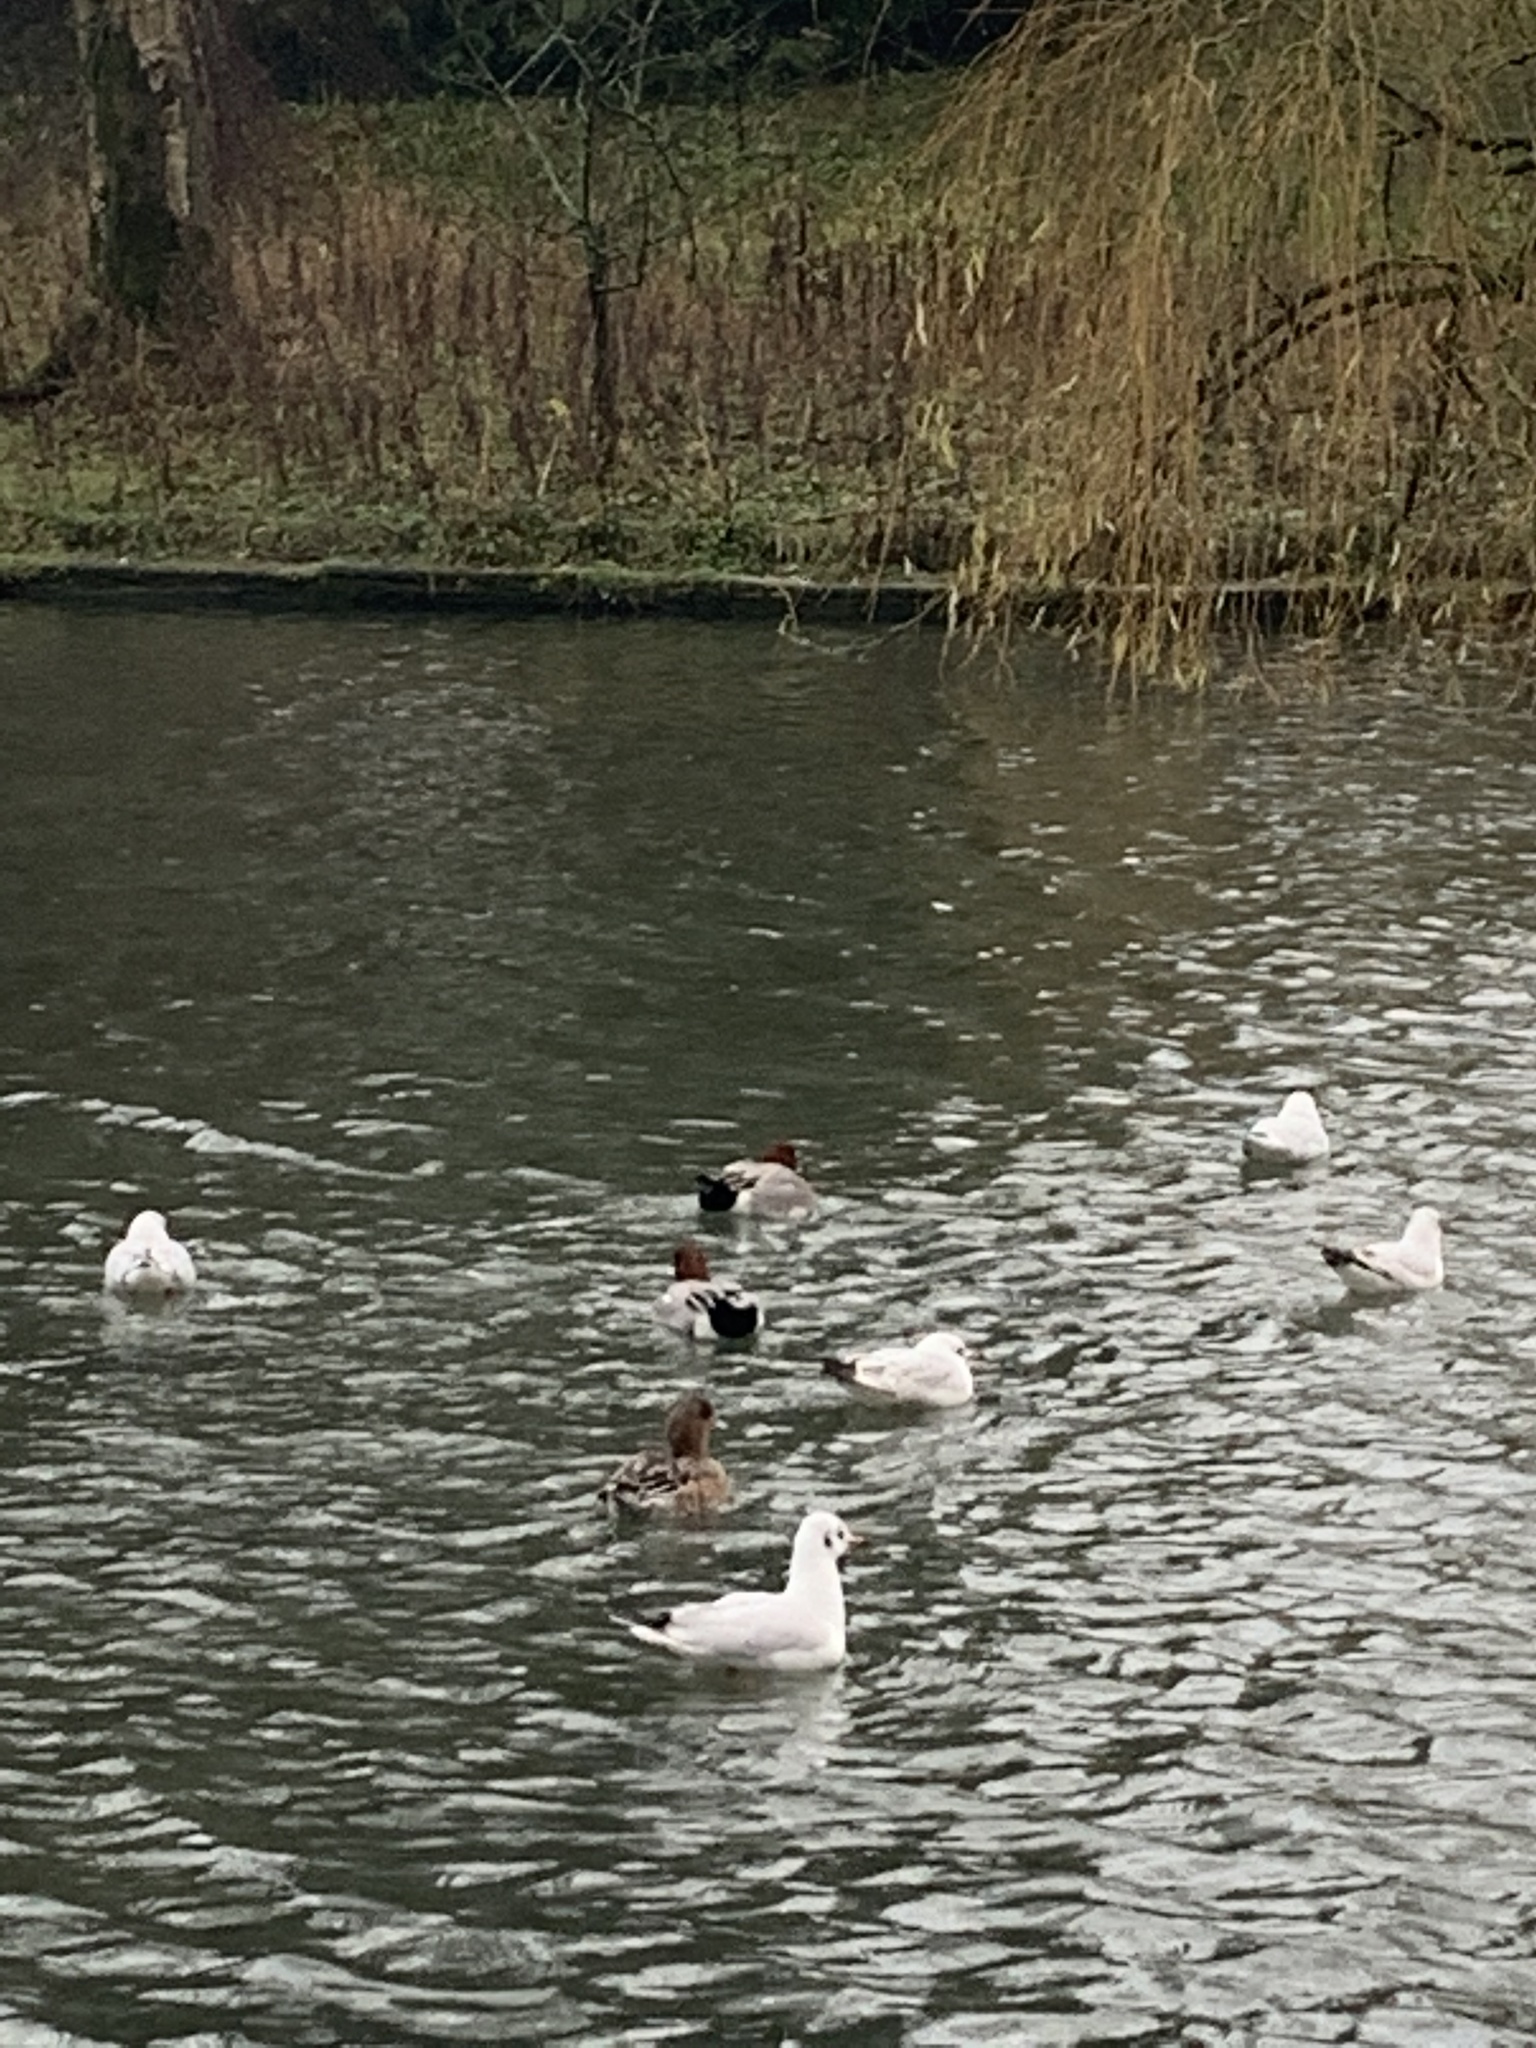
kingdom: Animalia
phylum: Chordata
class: Aves
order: Anseriformes
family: Anatidae
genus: Mareca
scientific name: Mareca penelope
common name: Eurasian wigeon
